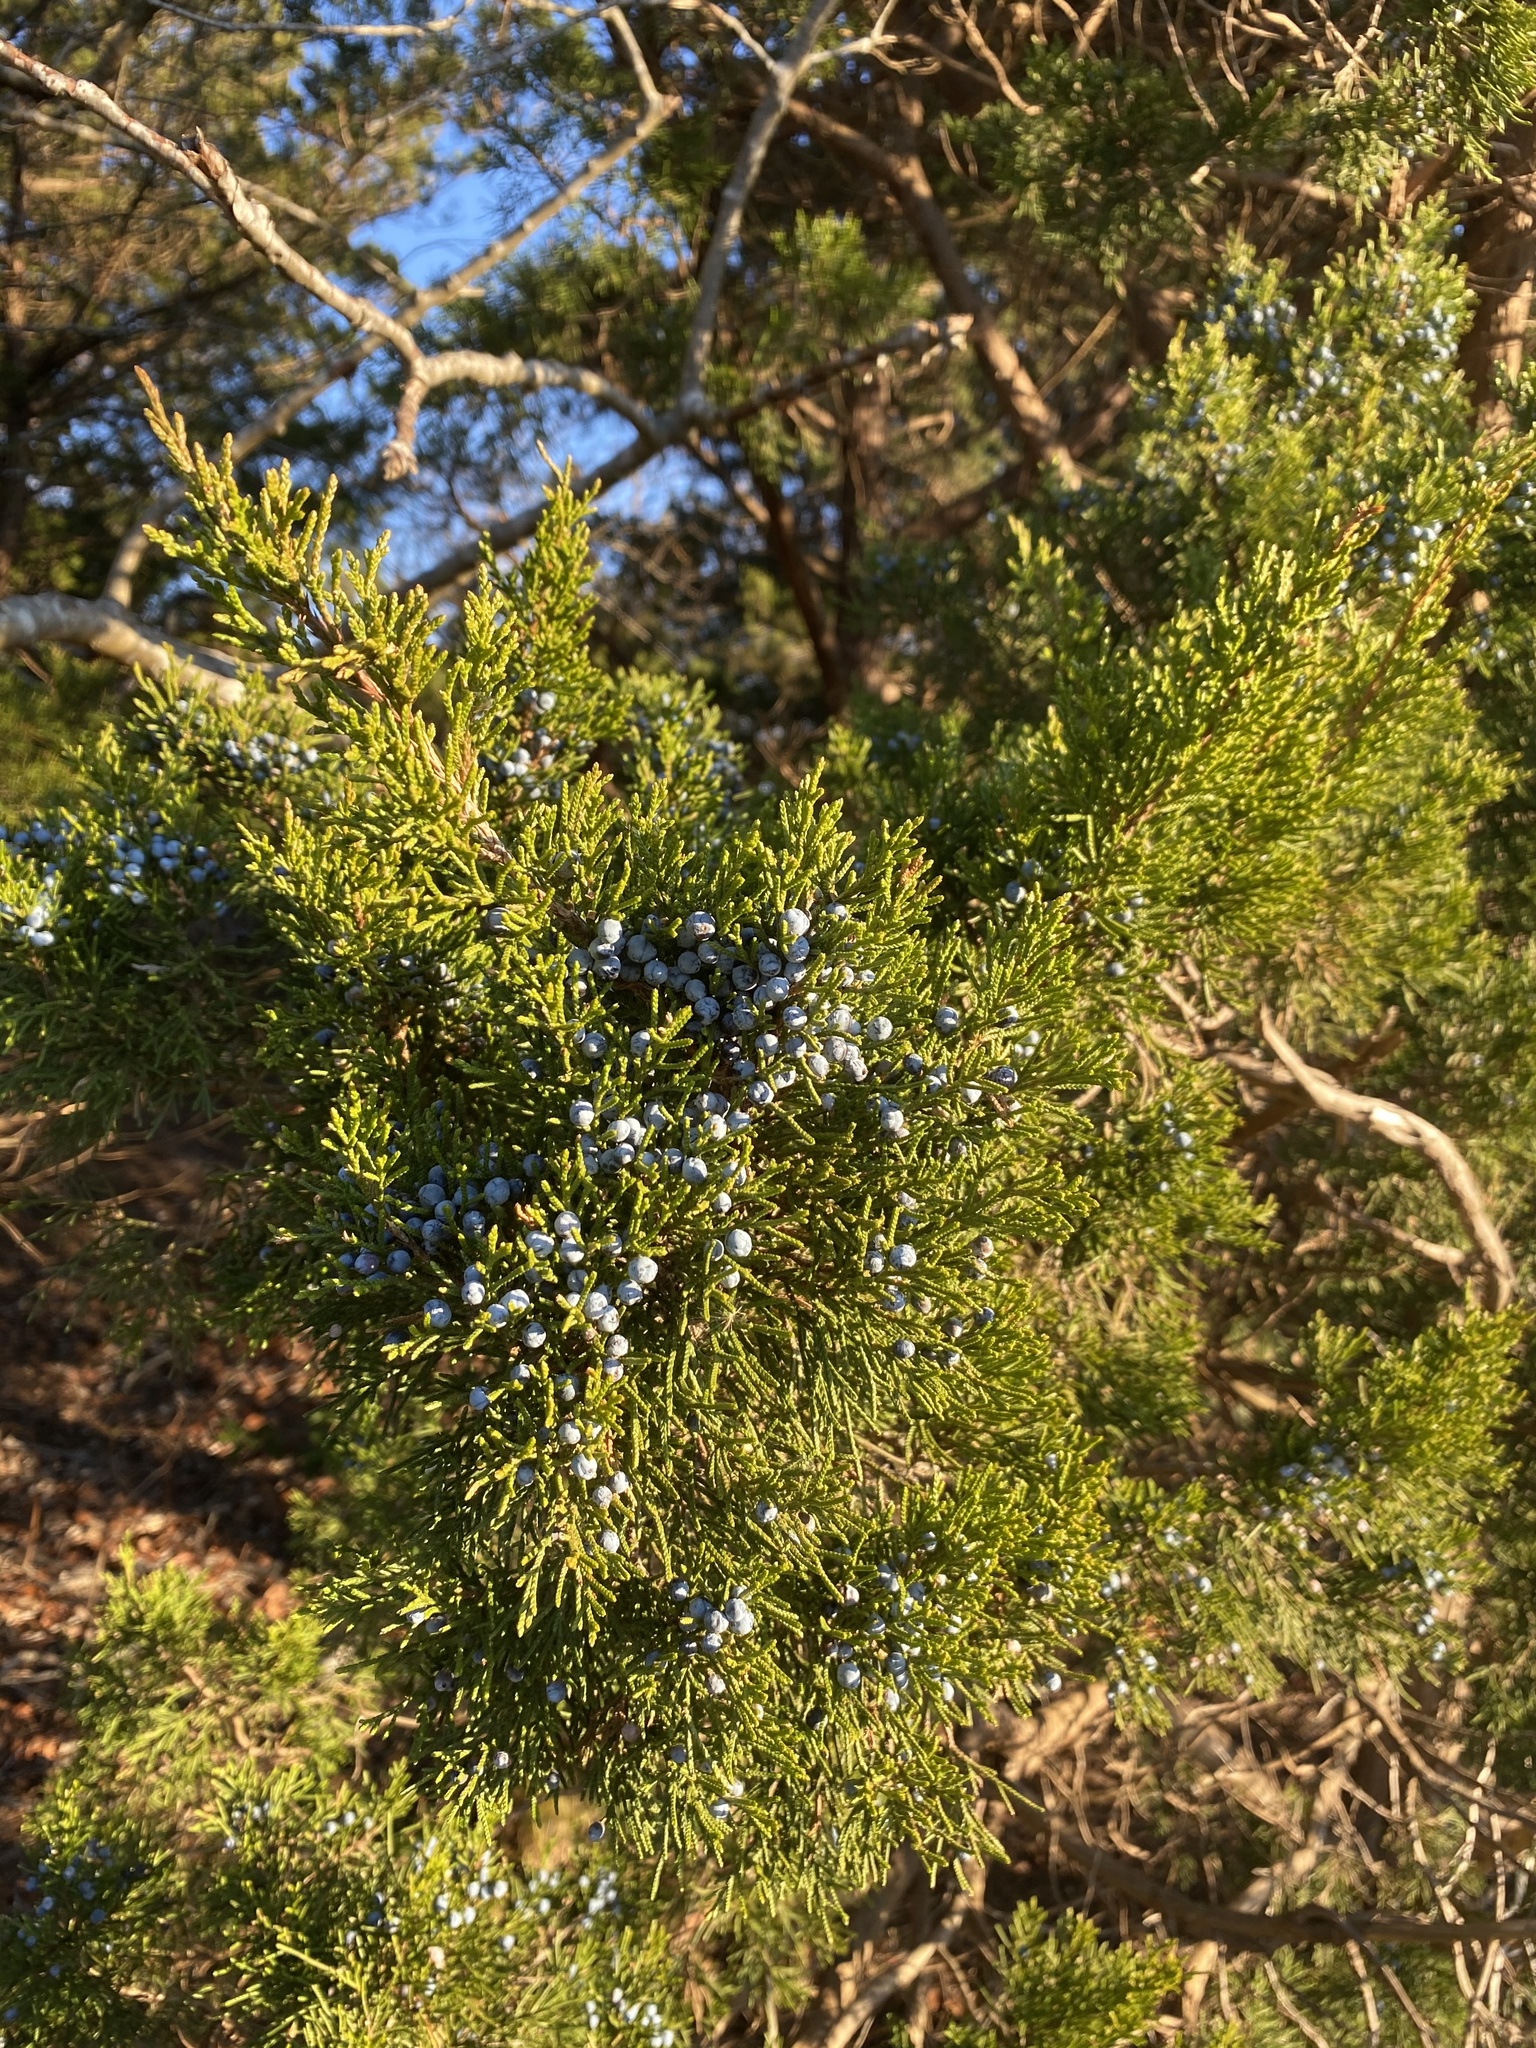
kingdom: Plantae
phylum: Tracheophyta
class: Pinopsida
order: Pinales
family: Cupressaceae
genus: Juniperus
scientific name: Juniperus virginiana
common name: Red juniper
